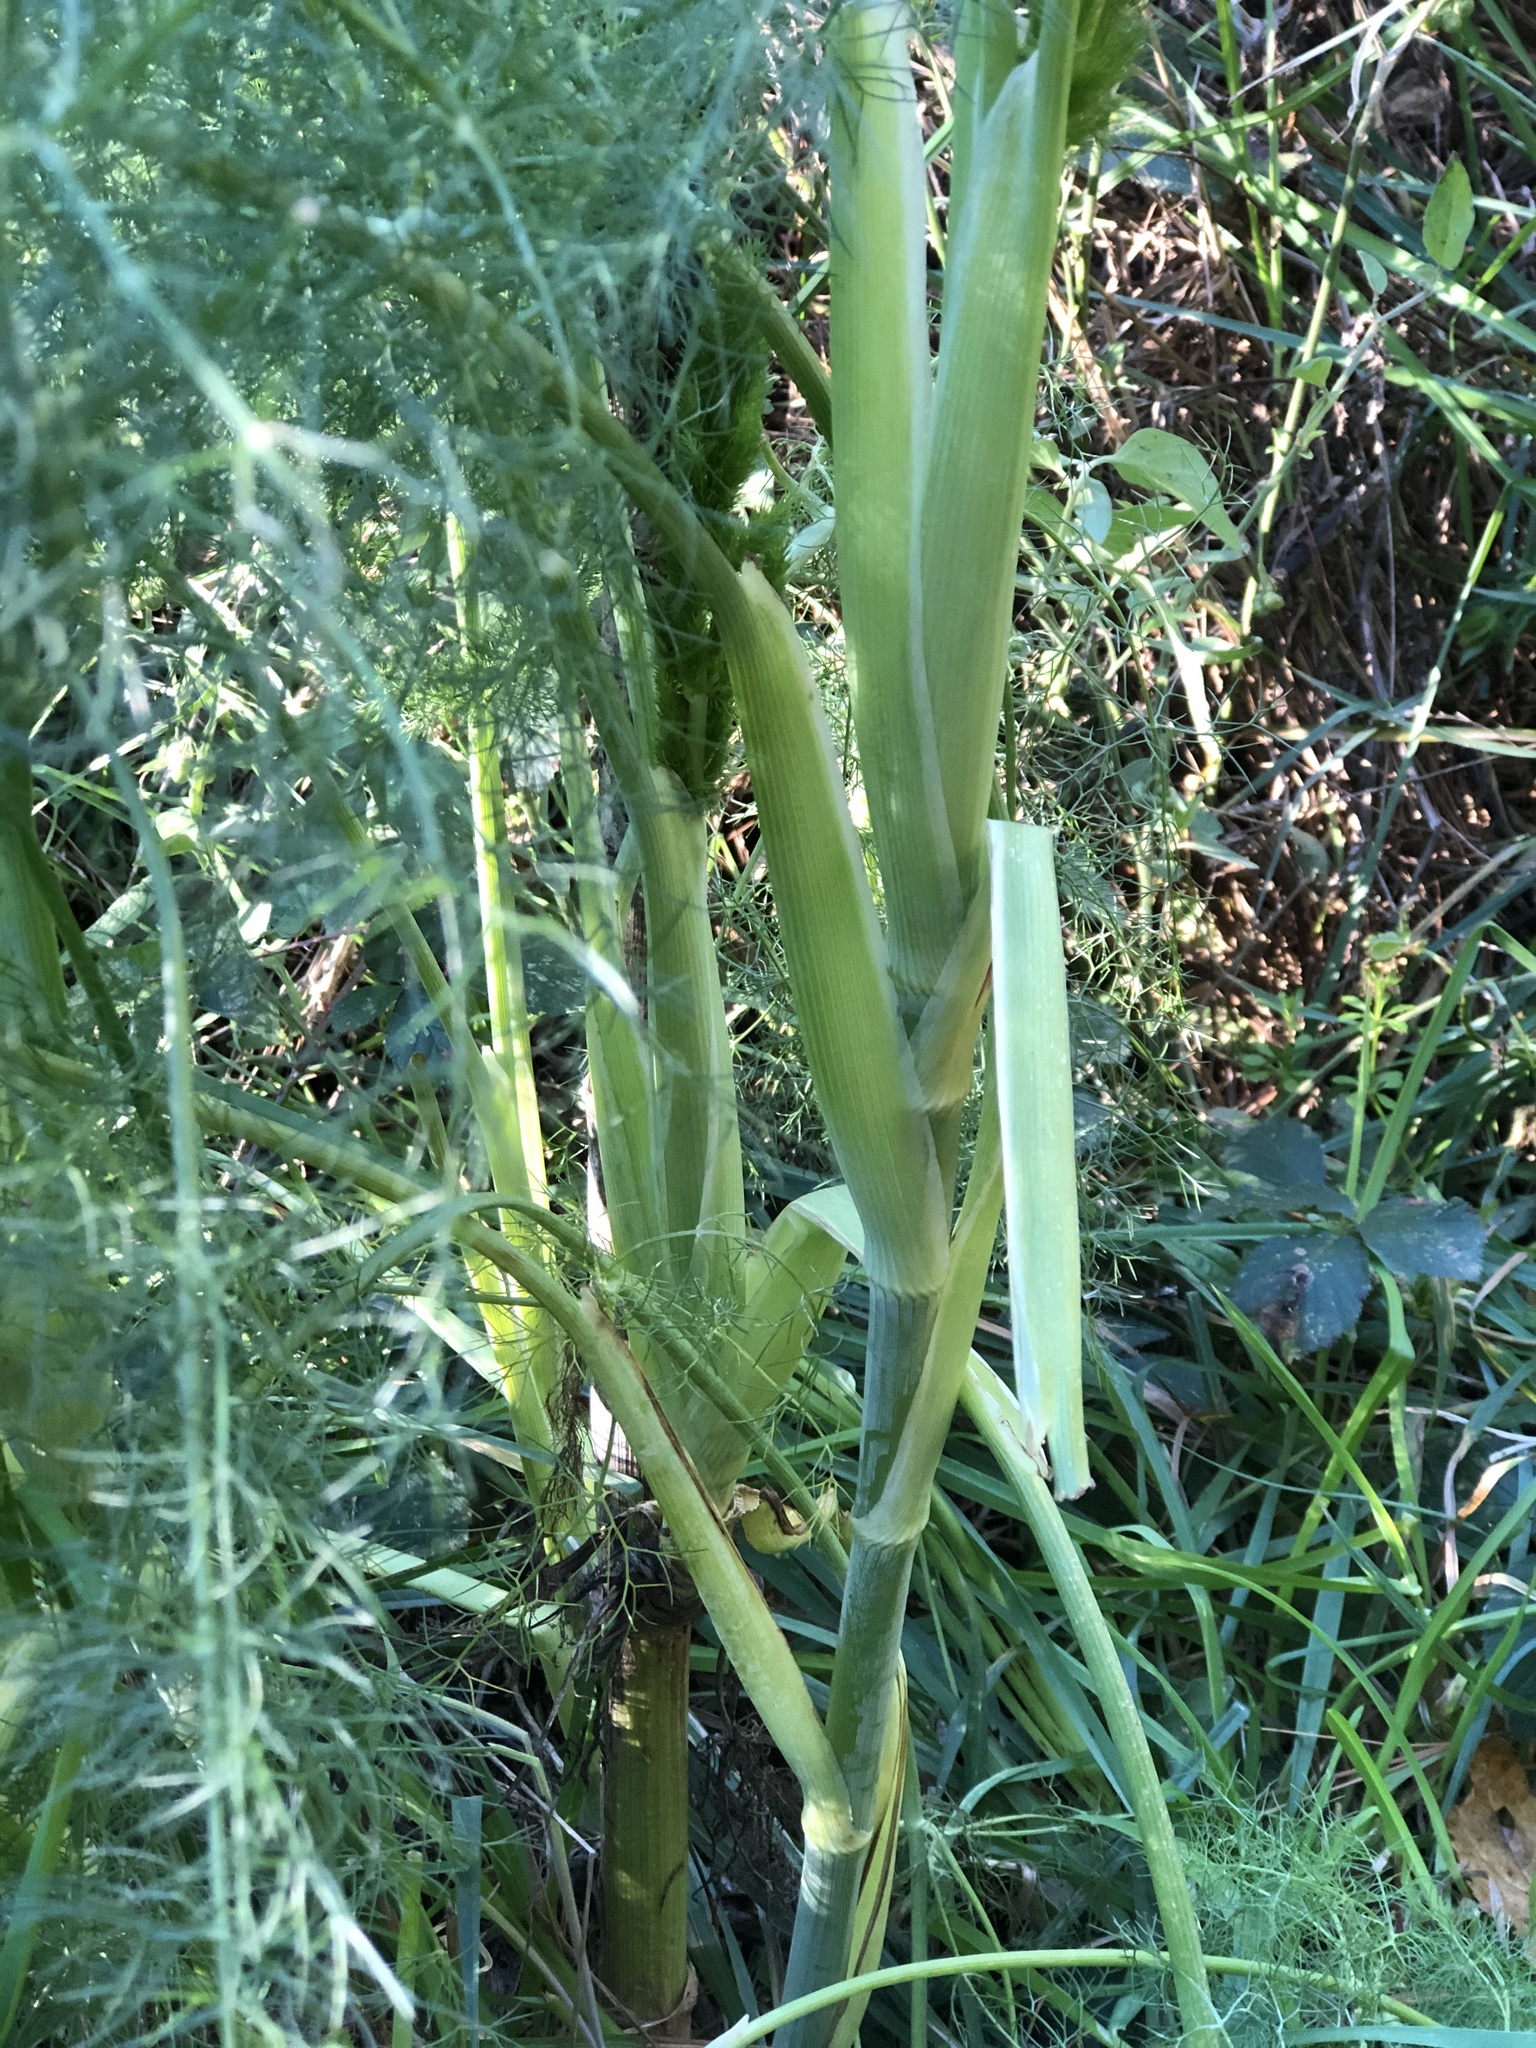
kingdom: Plantae
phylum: Tracheophyta
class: Magnoliopsida
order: Apiales
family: Apiaceae
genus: Foeniculum
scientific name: Foeniculum vulgare
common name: Fennel
